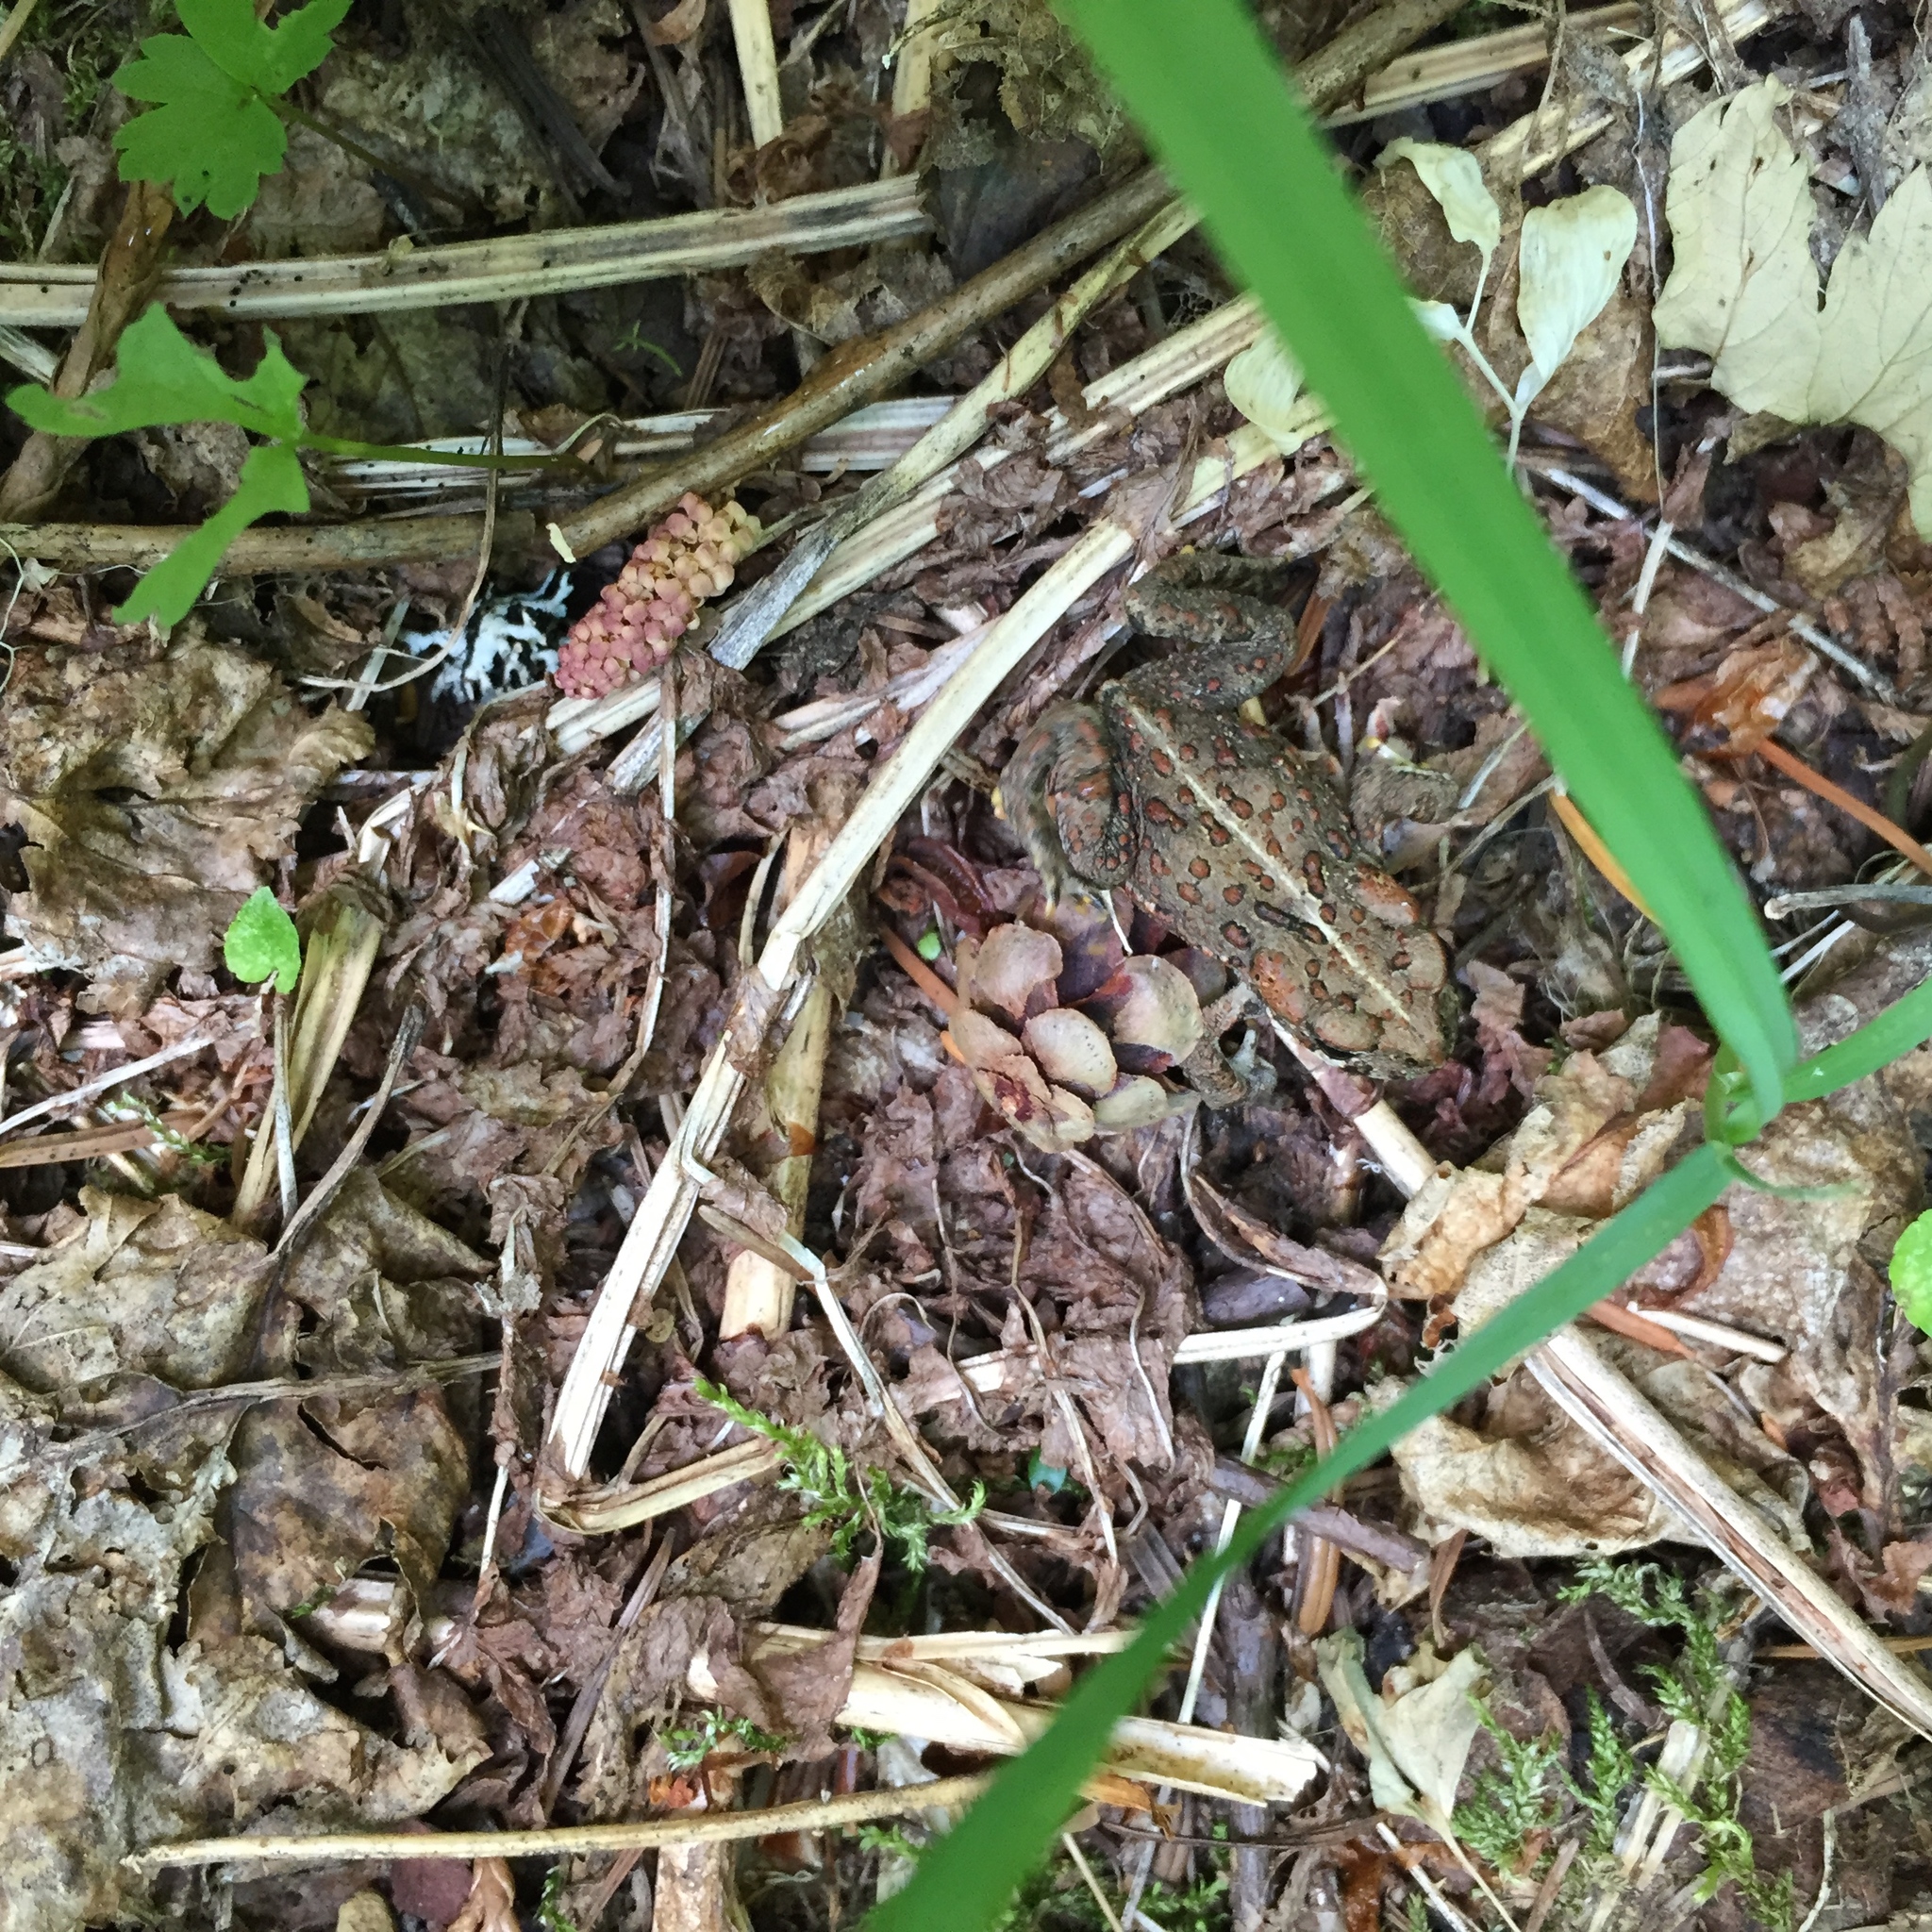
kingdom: Animalia
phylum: Chordata
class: Amphibia
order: Anura
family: Bufonidae
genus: Anaxyrus
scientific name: Anaxyrus boreas
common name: Western toad
